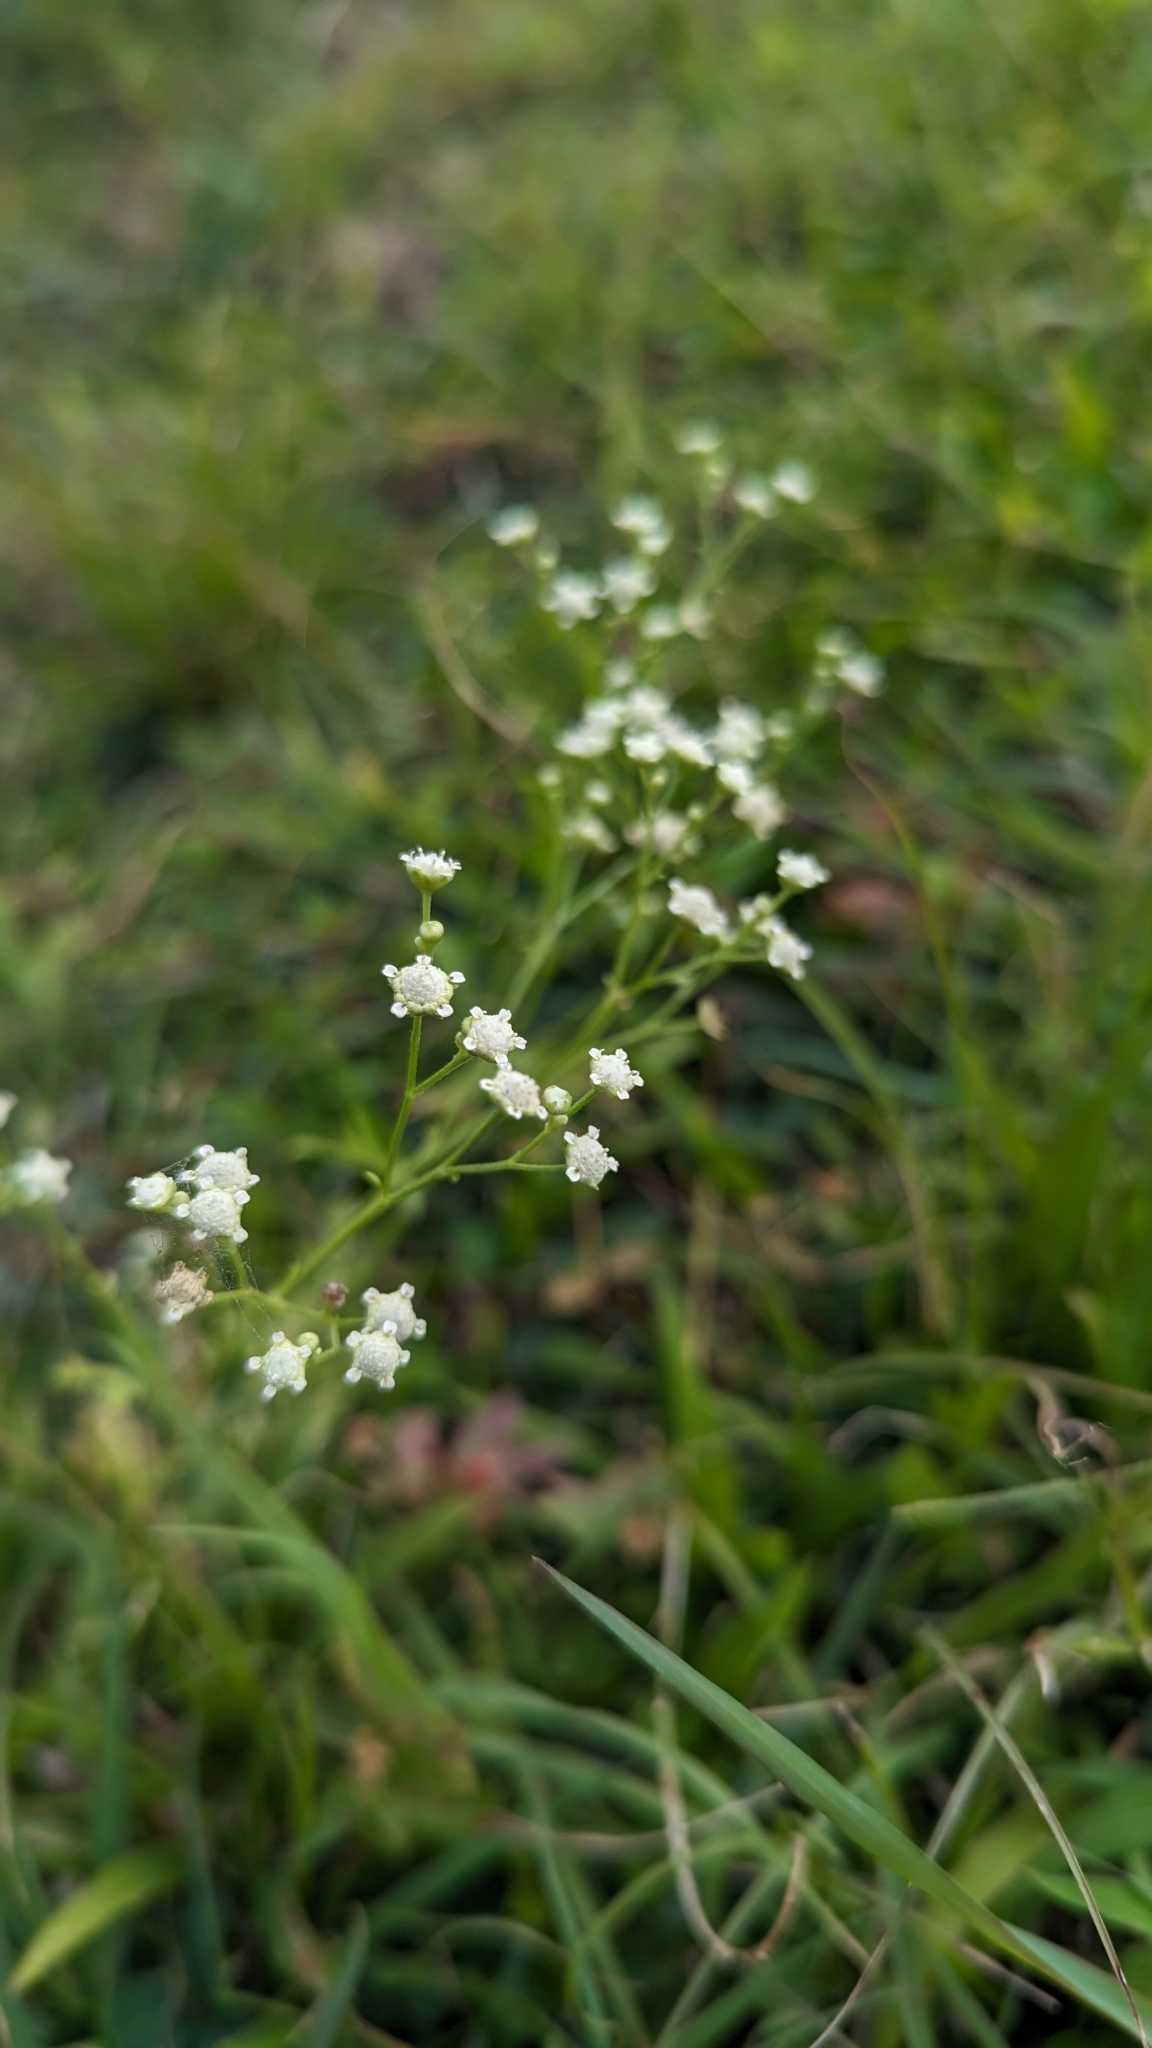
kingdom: Plantae
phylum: Tracheophyta
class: Magnoliopsida
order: Asterales
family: Asteraceae
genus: Parthenium
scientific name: Parthenium hysterophorus
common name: Santa maria feverfew
